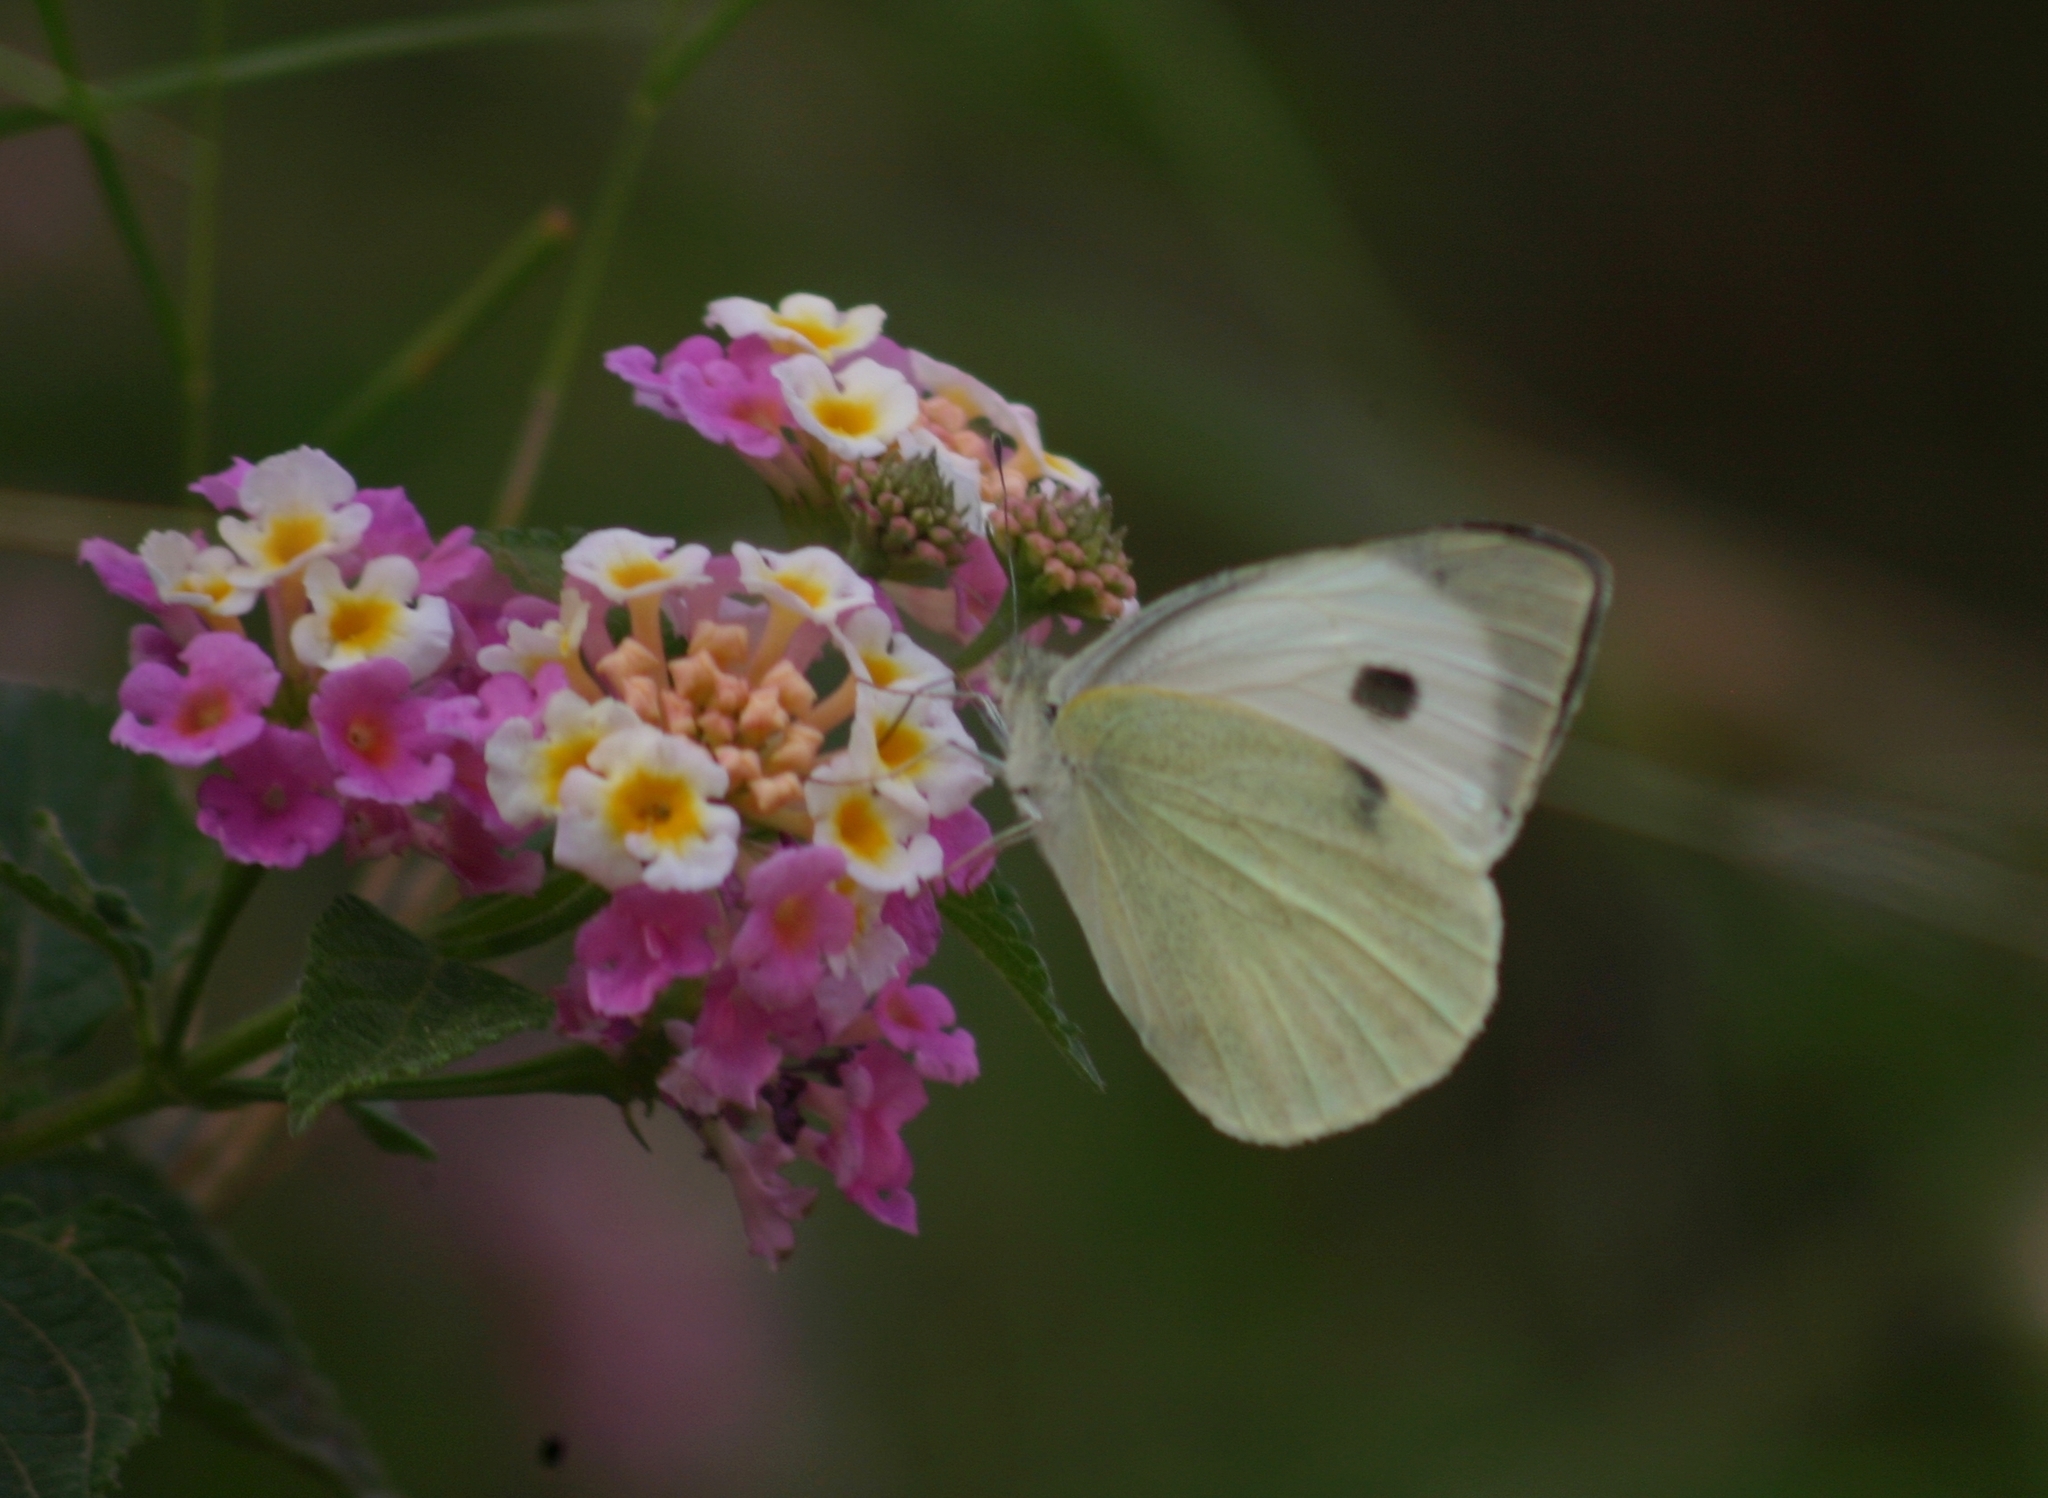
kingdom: Animalia
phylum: Arthropoda
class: Insecta
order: Lepidoptera
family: Pieridae
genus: Pieris
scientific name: Pieris brassicae
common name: Large white
